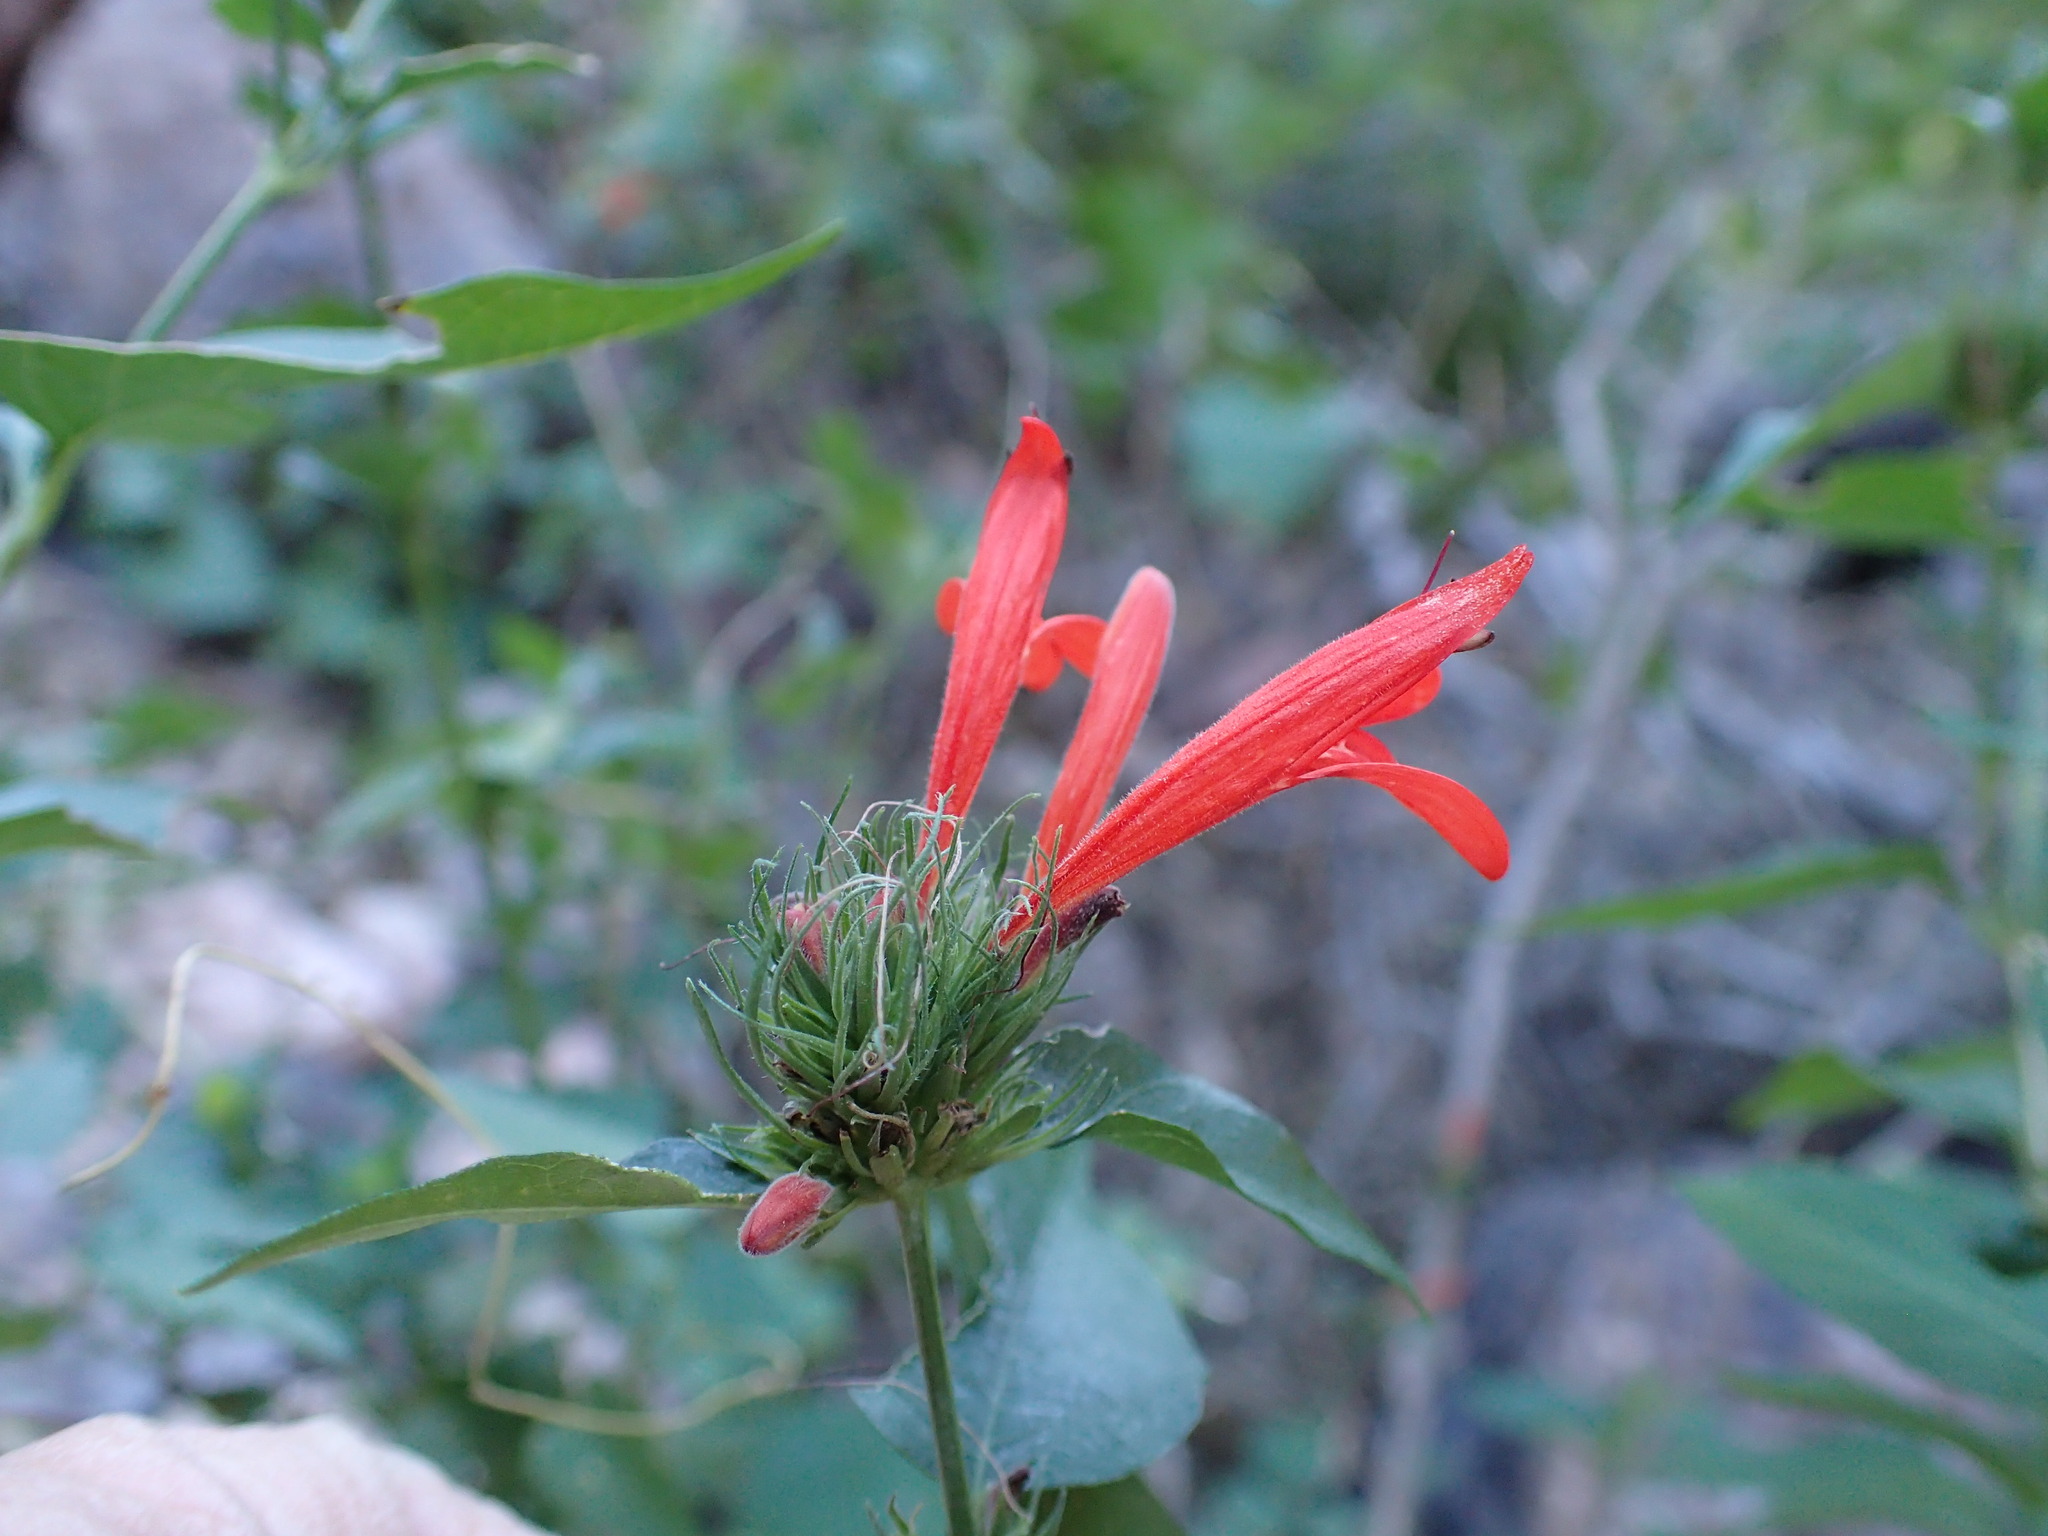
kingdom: Plantae
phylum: Tracheophyta
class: Magnoliopsida
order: Lamiales
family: Acanthaceae
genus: Dianthera
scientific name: Dianthera candicans
